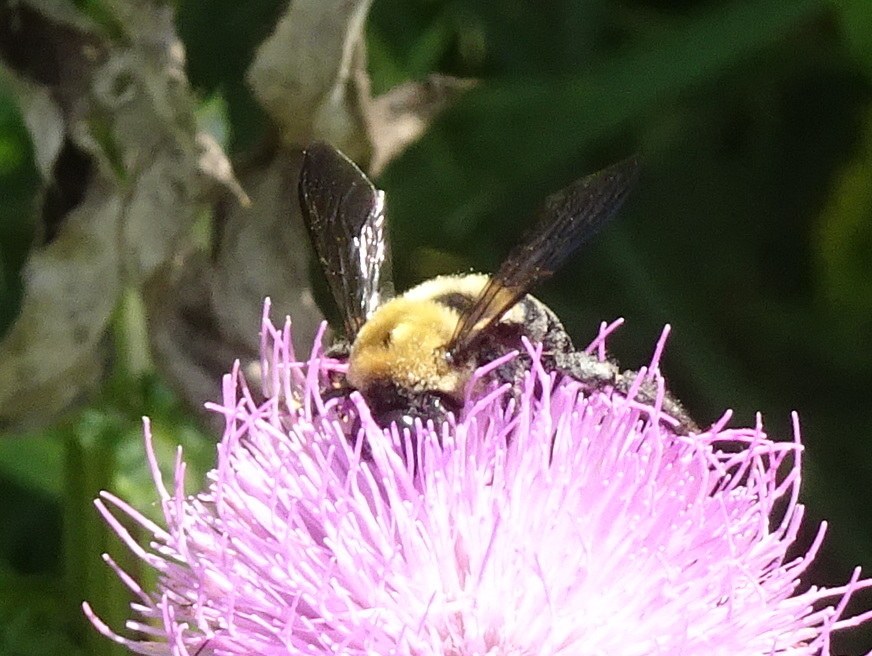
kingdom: Animalia
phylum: Arthropoda
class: Insecta
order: Hymenoptera
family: Apidae
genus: Xylocopa
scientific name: Xylocopa virginica
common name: Carpenter bee
